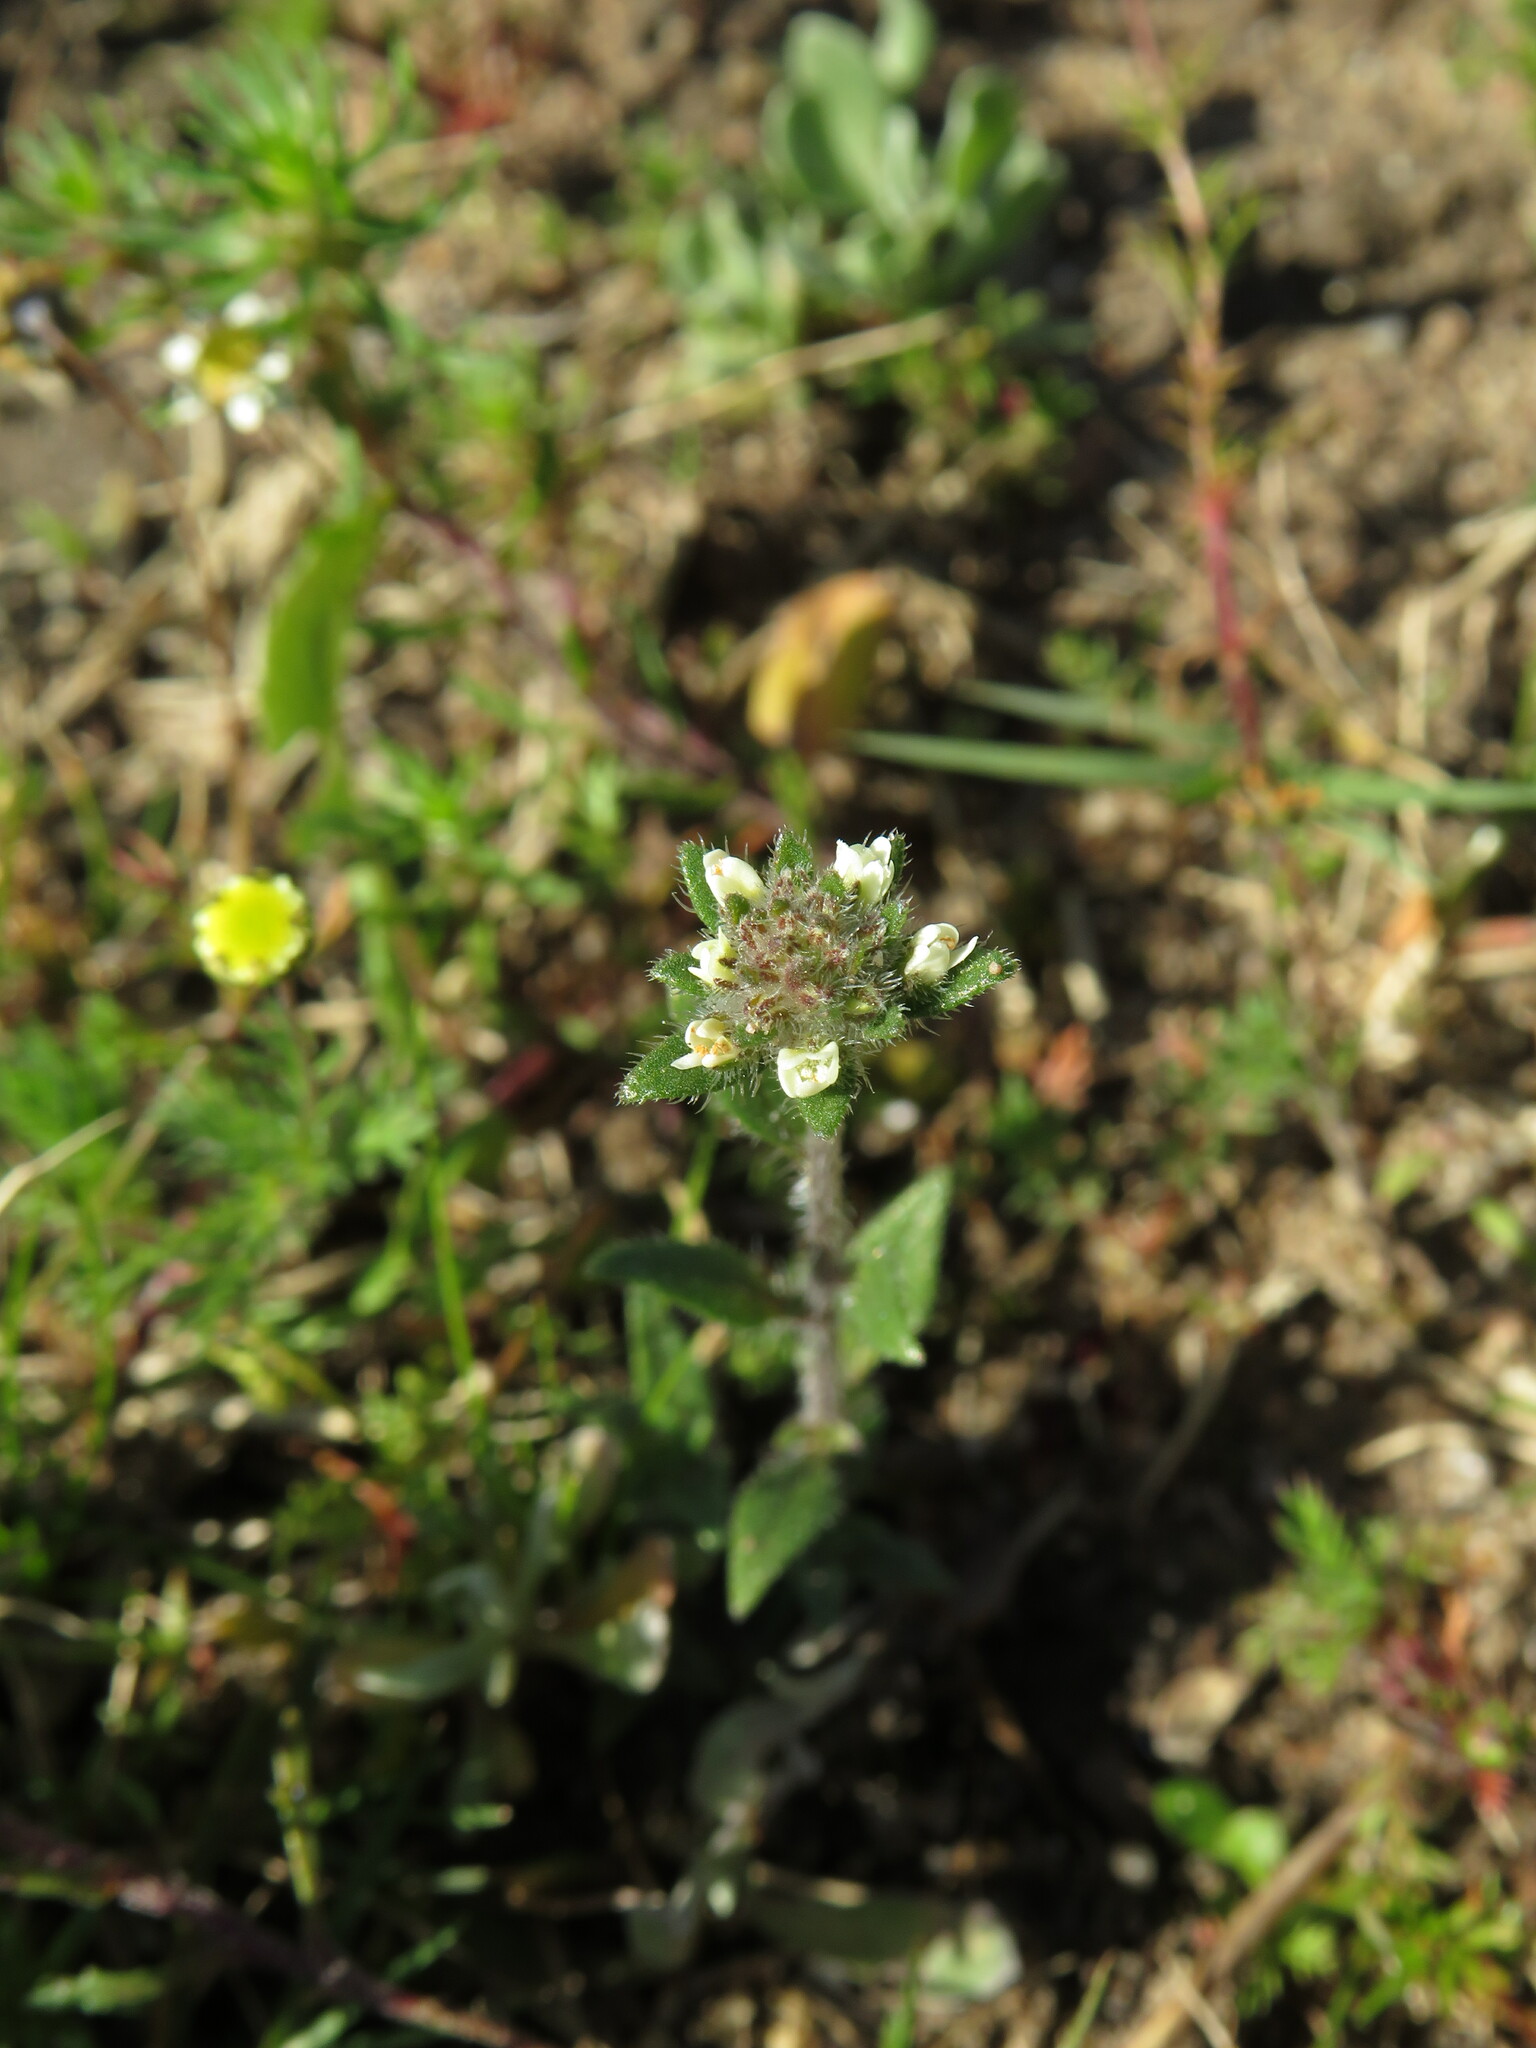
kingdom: Plantae
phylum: Tracheophyta
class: Magnoliopsida
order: Lamiales
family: Scrophulariaceae
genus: Phyllopodium
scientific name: Phyllopodium capillare
